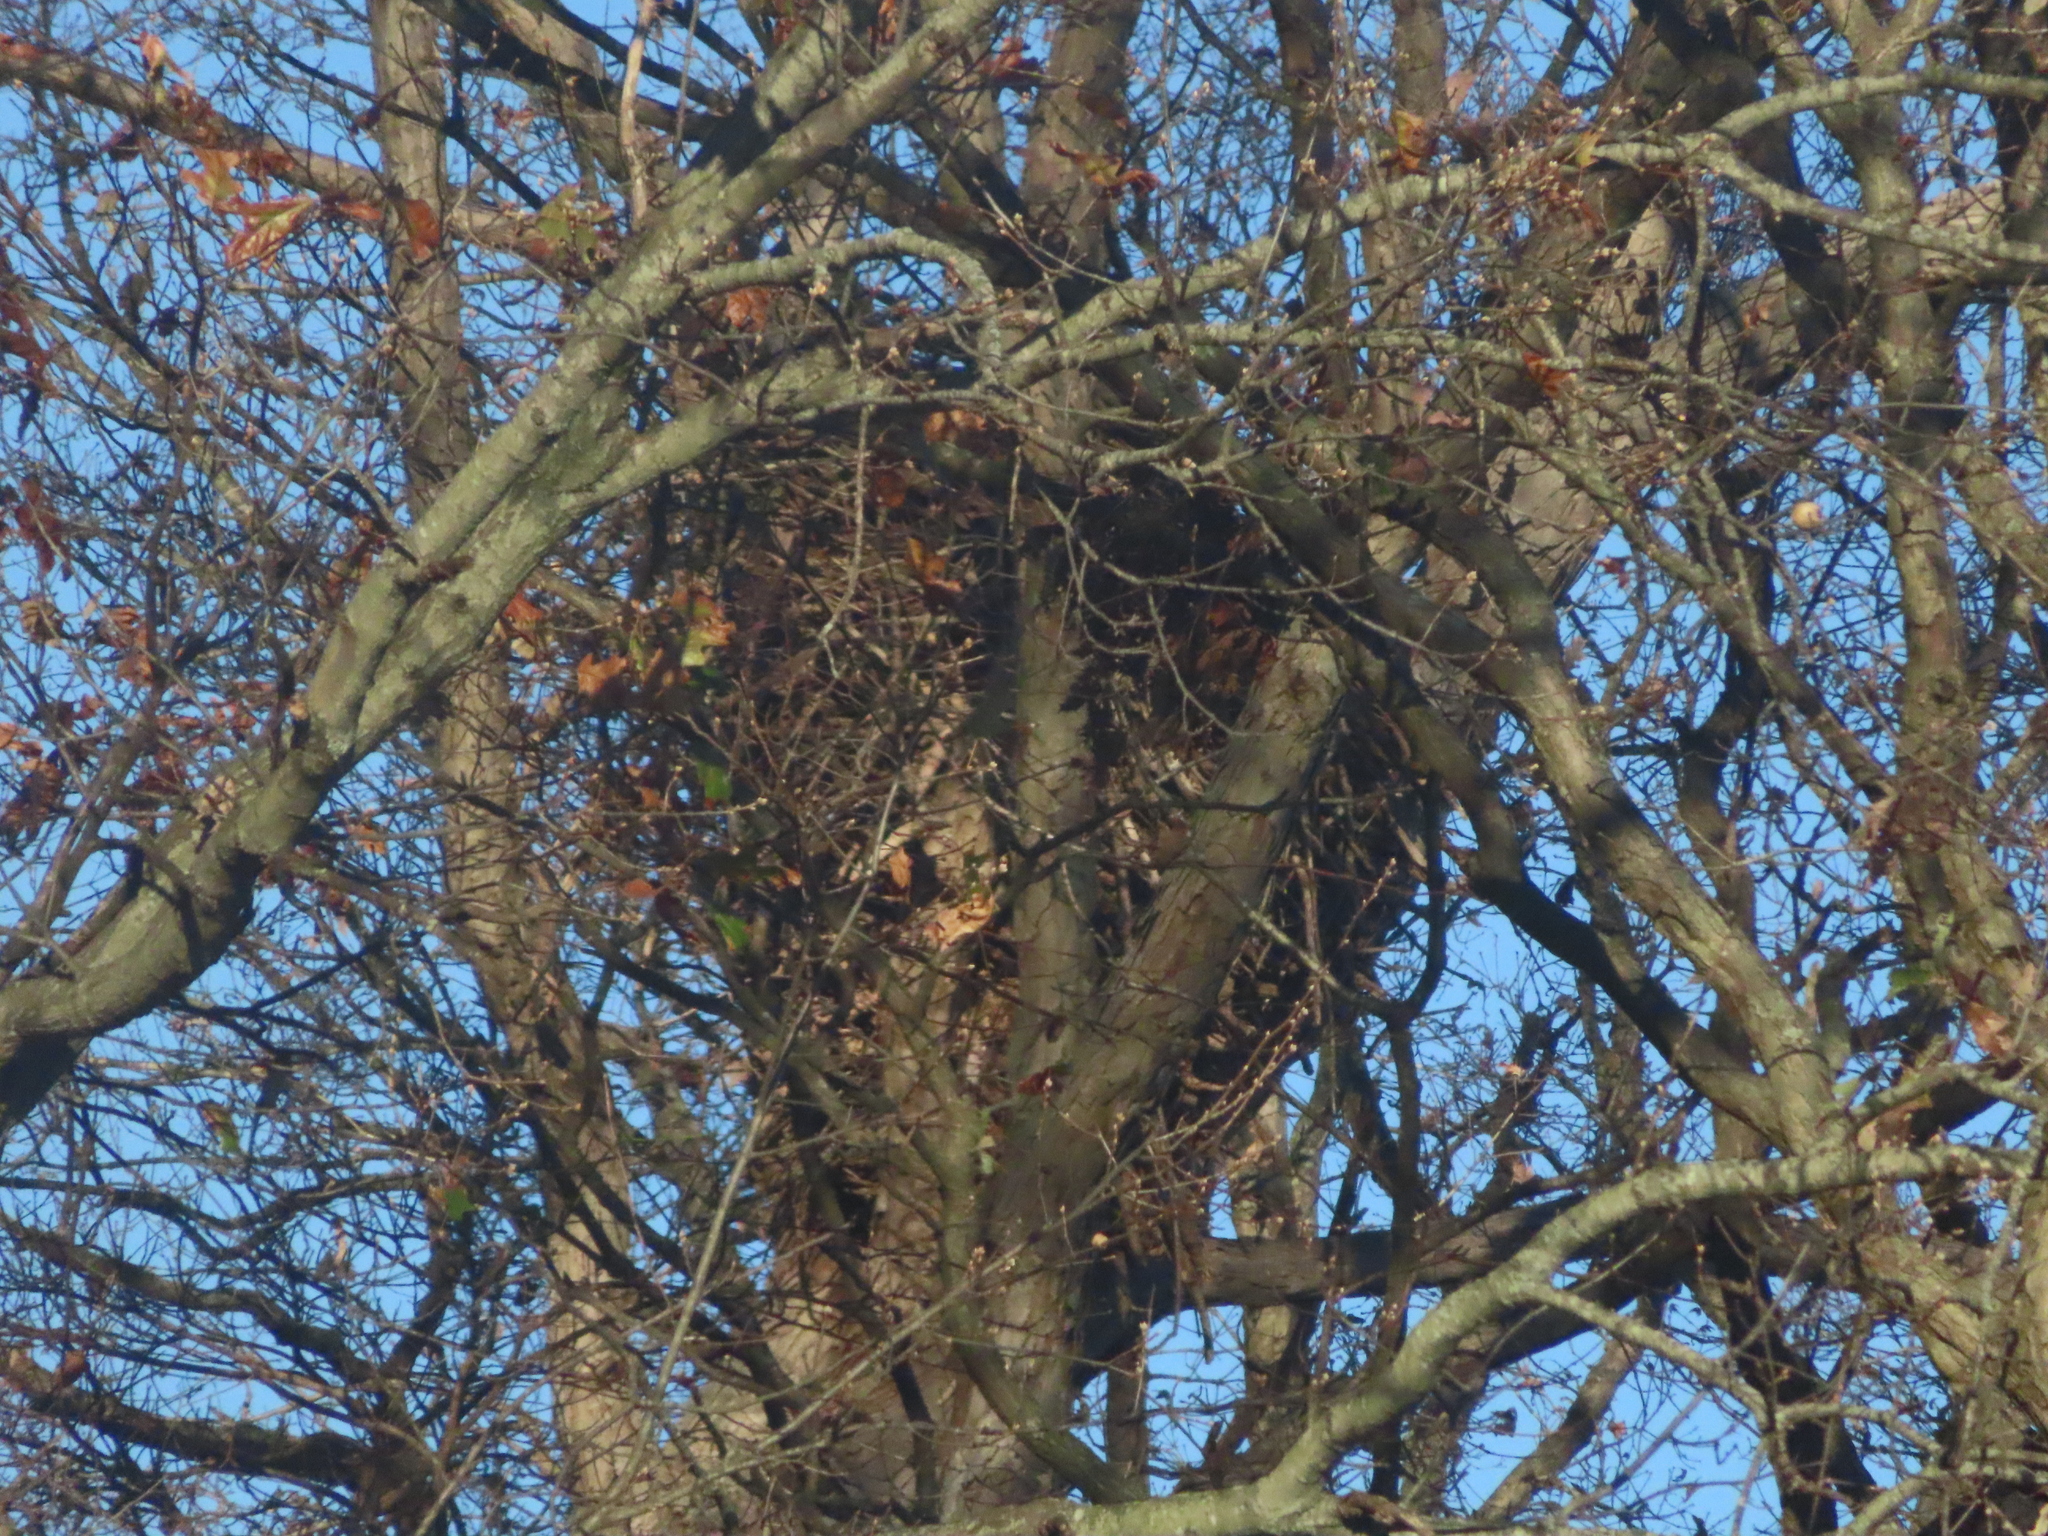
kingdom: Animalia
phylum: Chordata
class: Aves
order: Accipitriformes
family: Accipitridae
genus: Haliaeetus
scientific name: Haliaeetus leucocephalus
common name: Bald eagle
